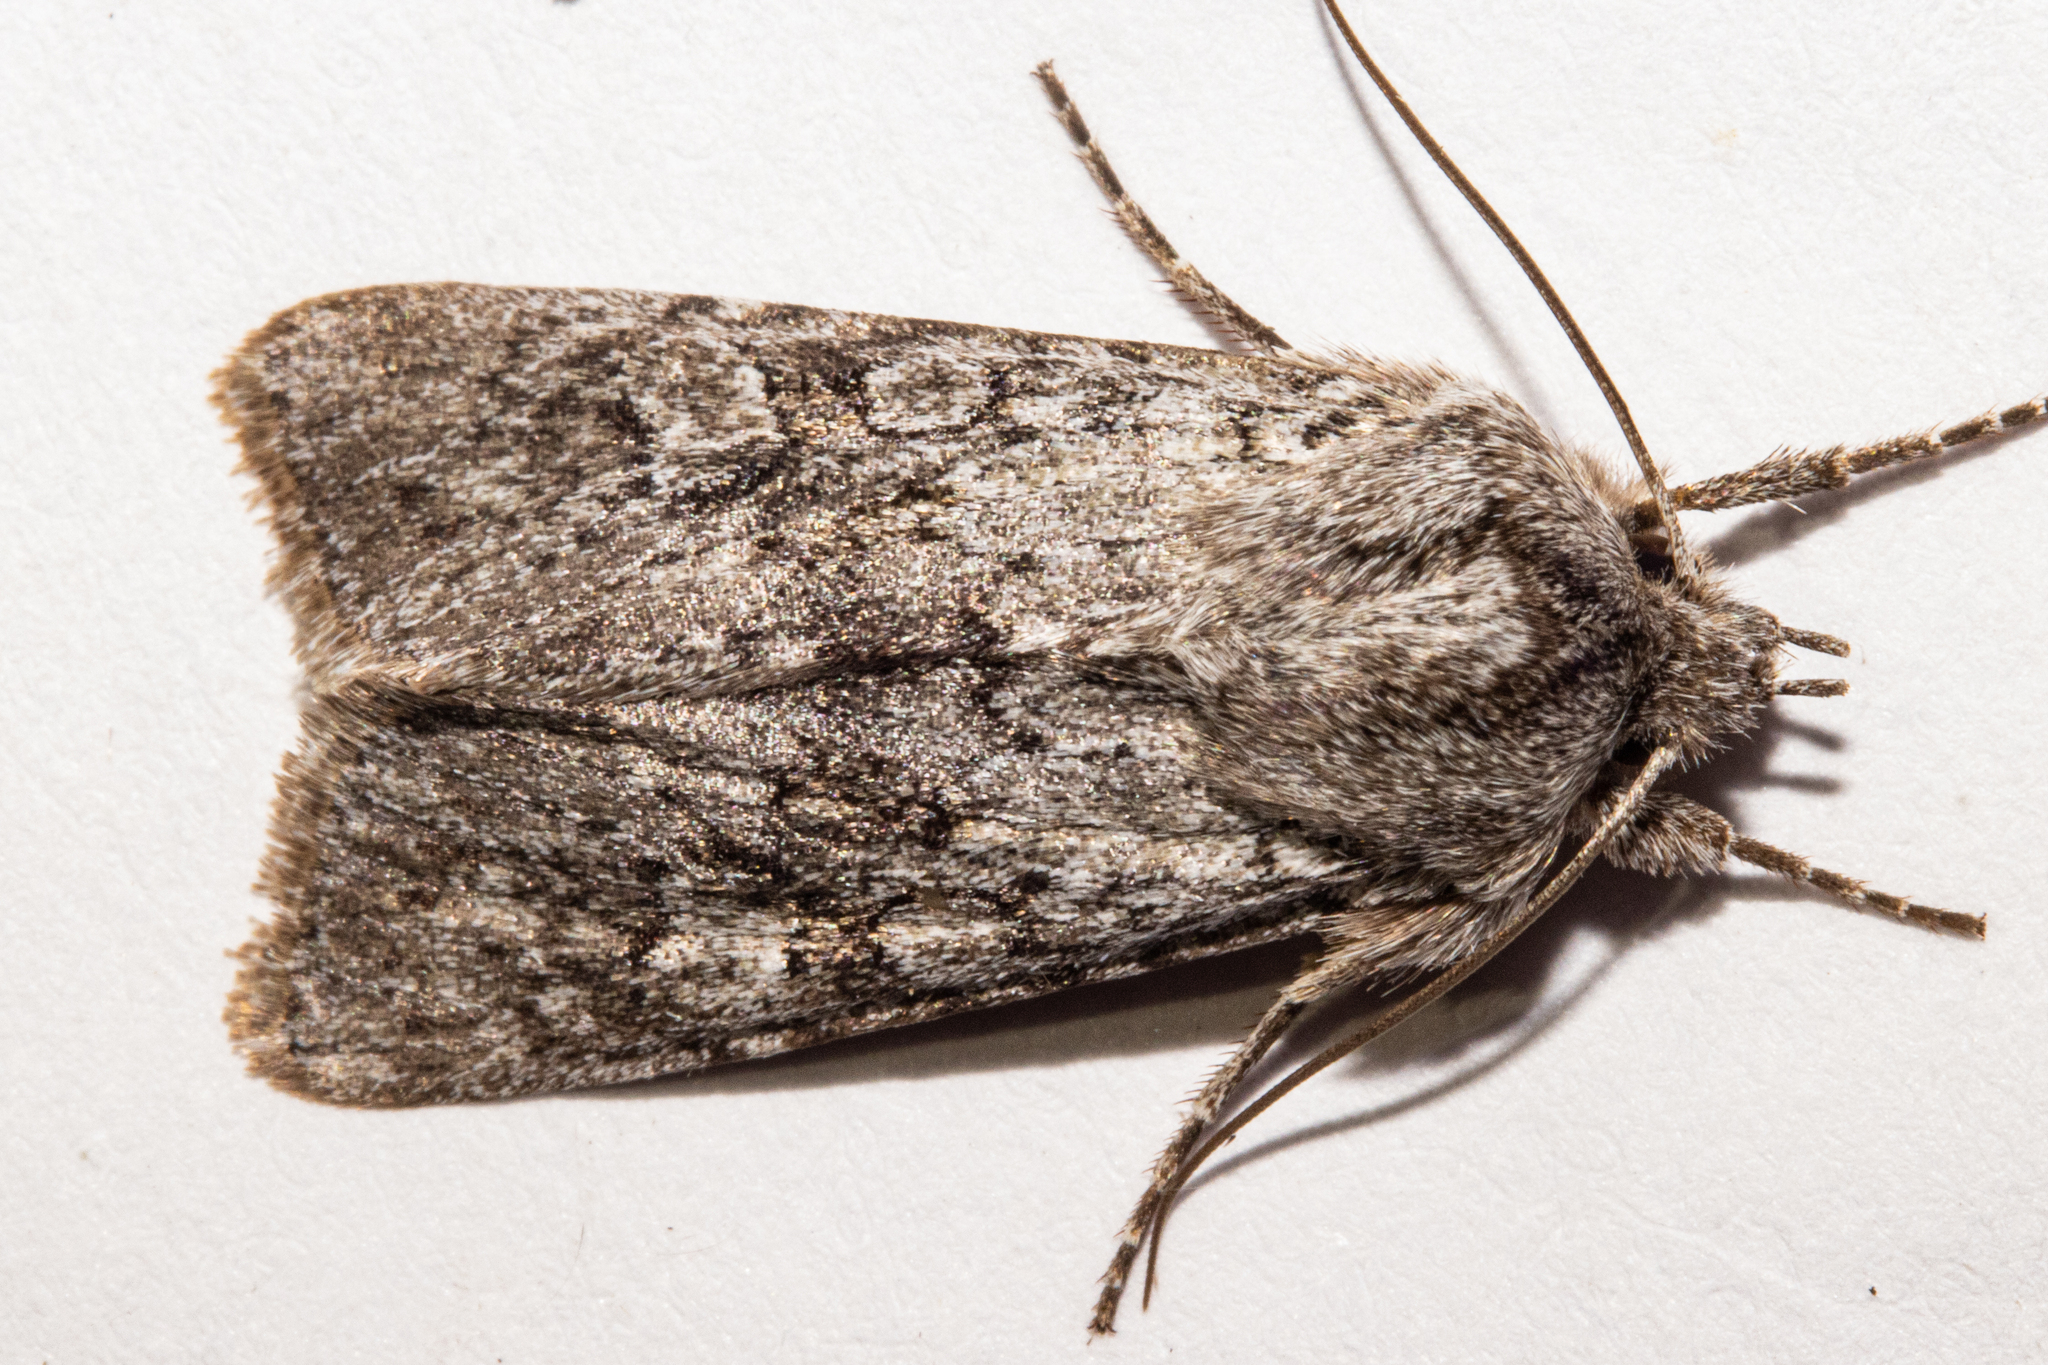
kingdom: Animalia
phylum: Arthropoda
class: Insecta
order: Lepidoptera
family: Noctuidae
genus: Physetica
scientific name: Physetica
